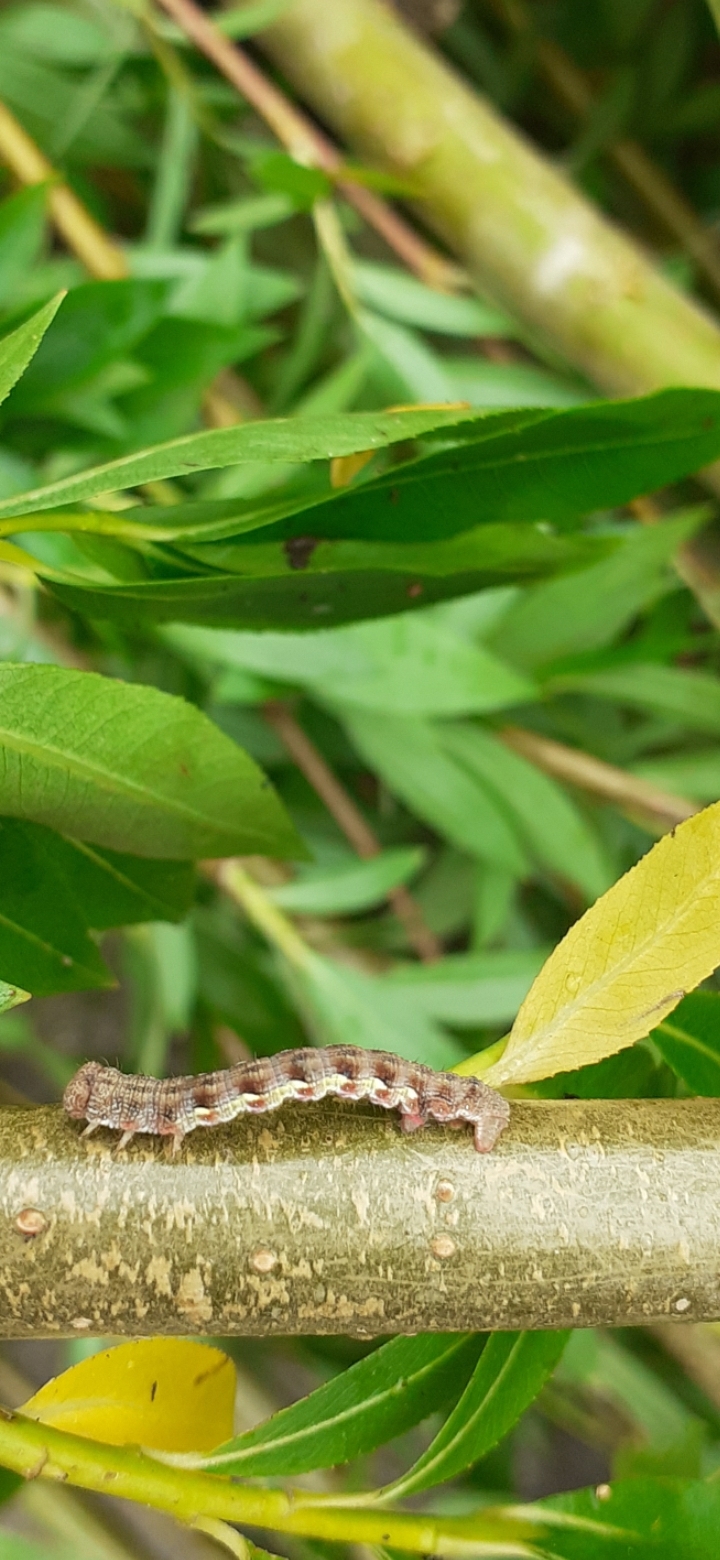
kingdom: Animalia
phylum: Arthropoda
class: Insecta
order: Lepidoptera
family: Geometridae
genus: Erannis
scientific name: Erannis defoliaria
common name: Mottled umber
